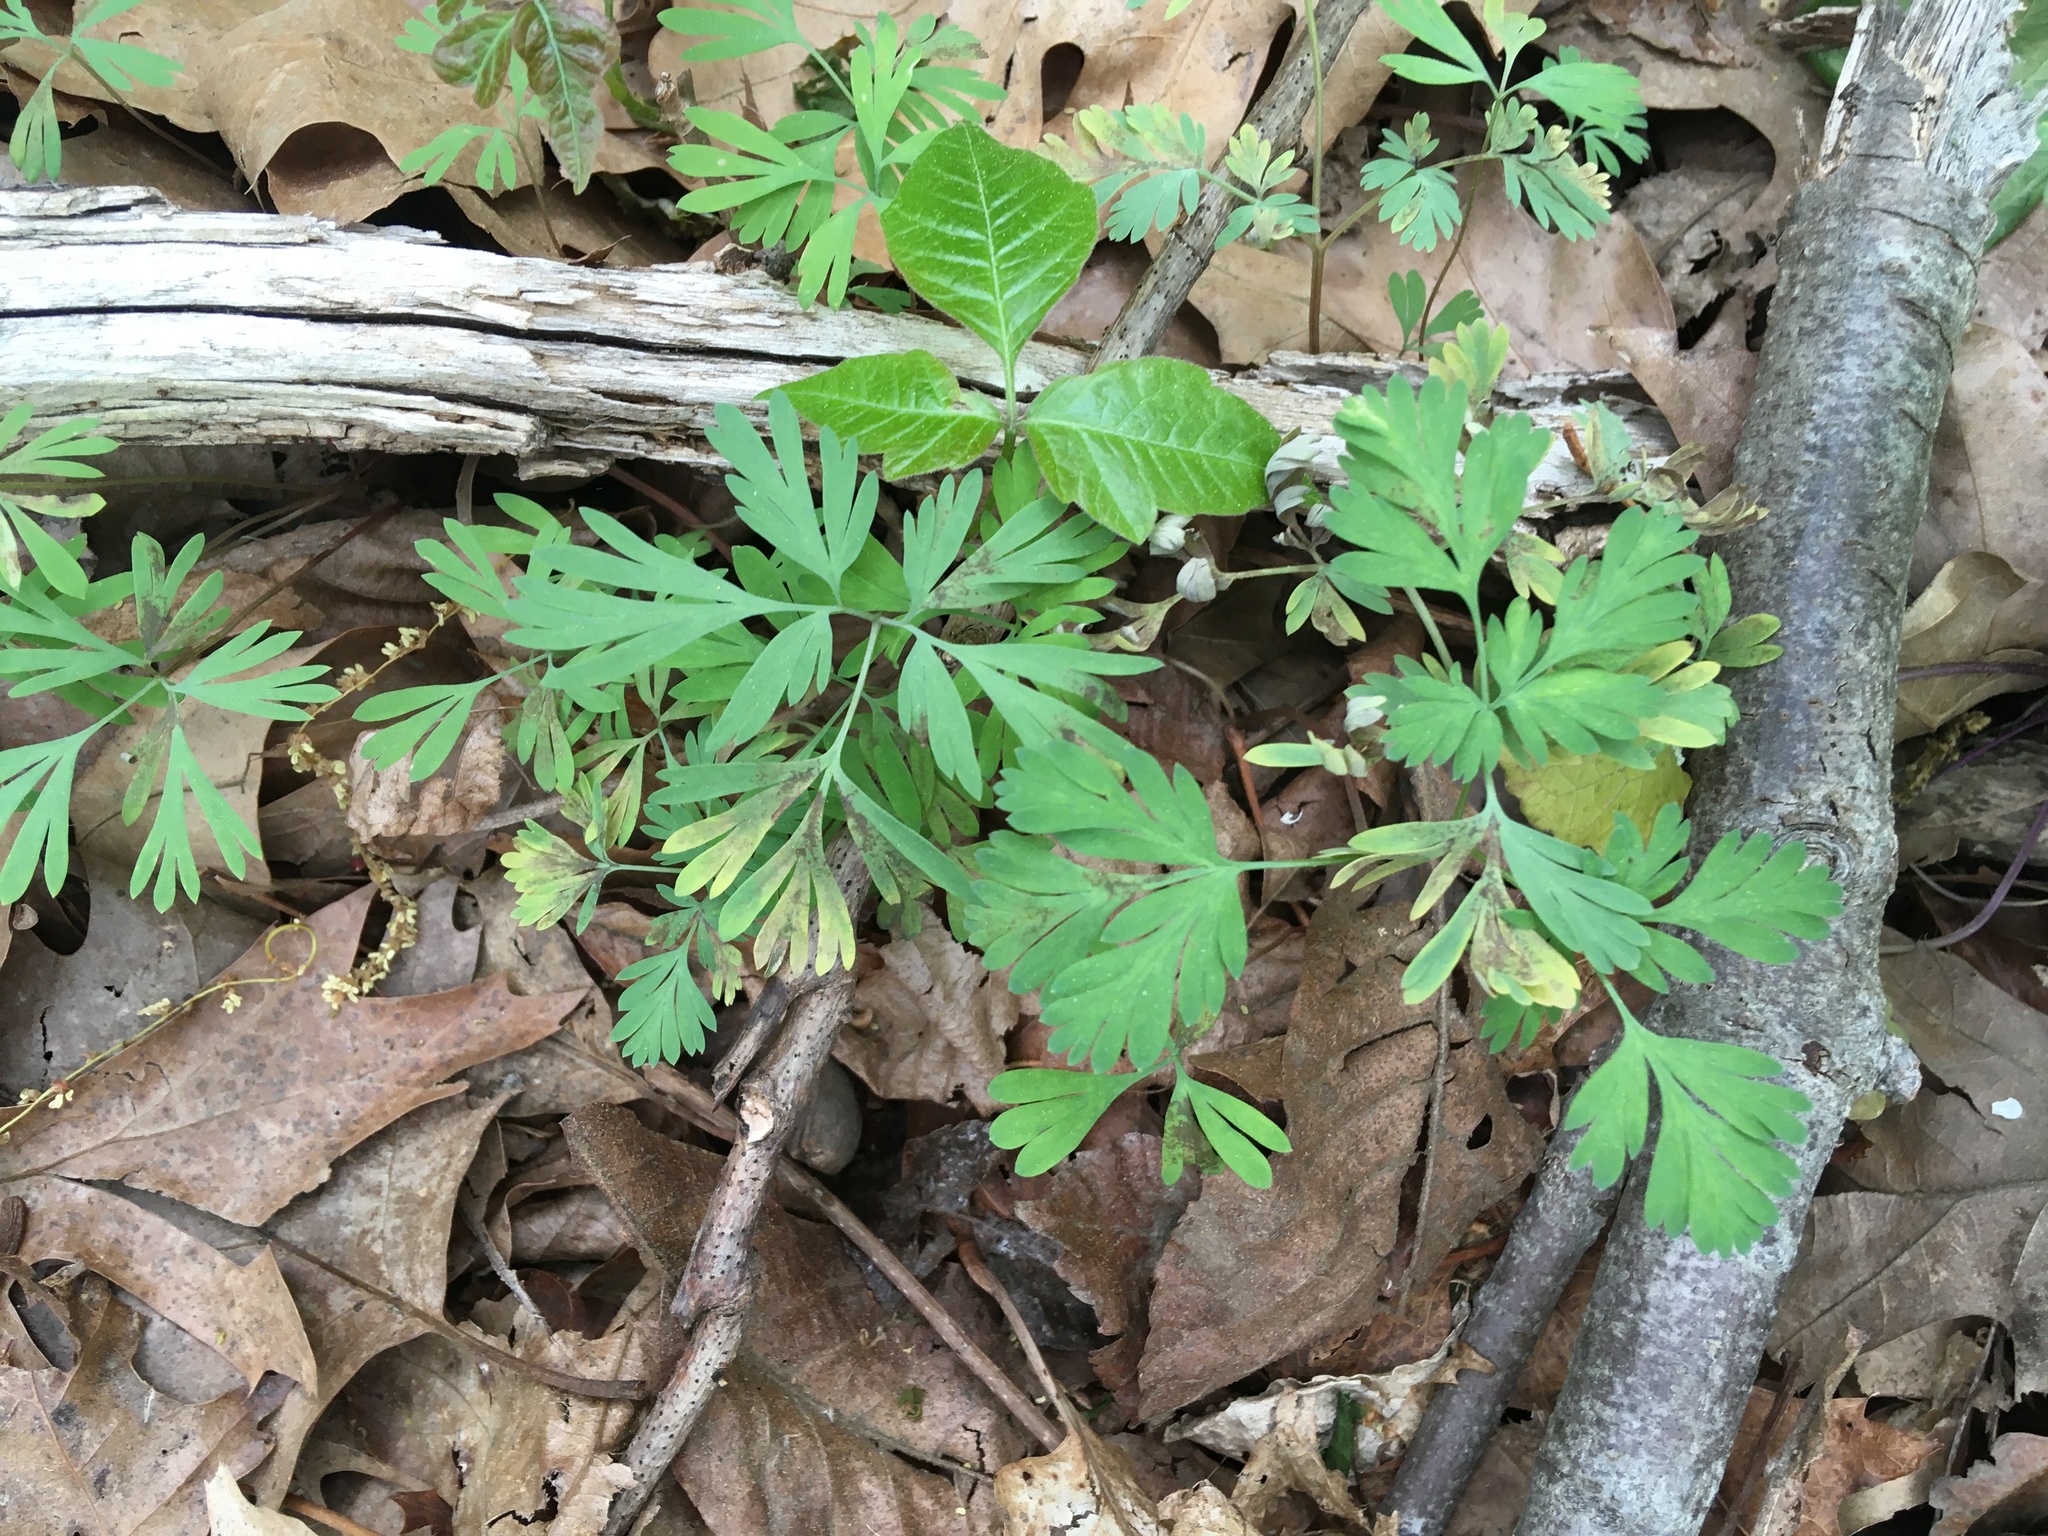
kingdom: Plantae
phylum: Tracheophyta
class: Magnoliopsida
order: Ranunculales
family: Papaveraceae
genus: Dicentra
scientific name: Dicentra cucullaria
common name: Dutchman's breeches
